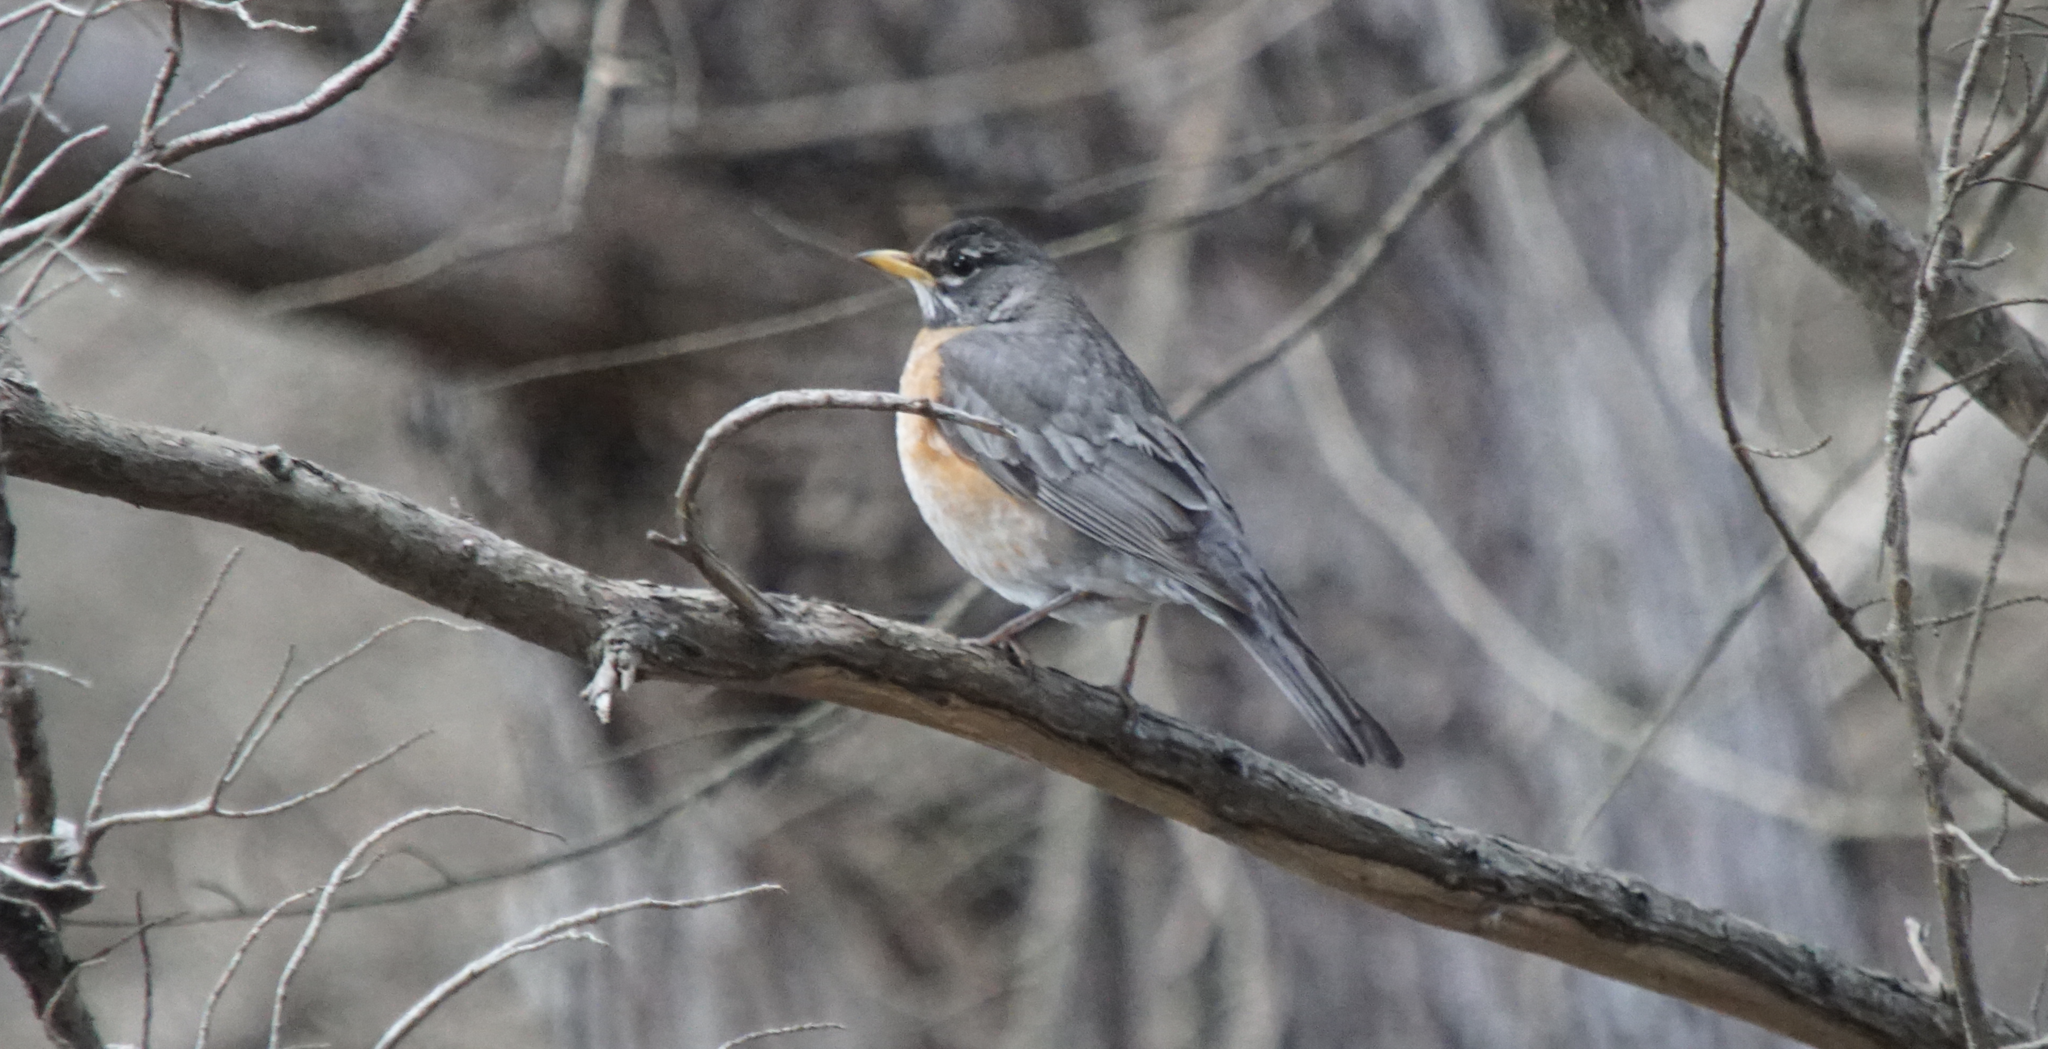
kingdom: Animalia
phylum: Chordata
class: Aves
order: Passeriformes
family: Turdidae
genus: Turdus
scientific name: Turdus migratorius
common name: American robin
